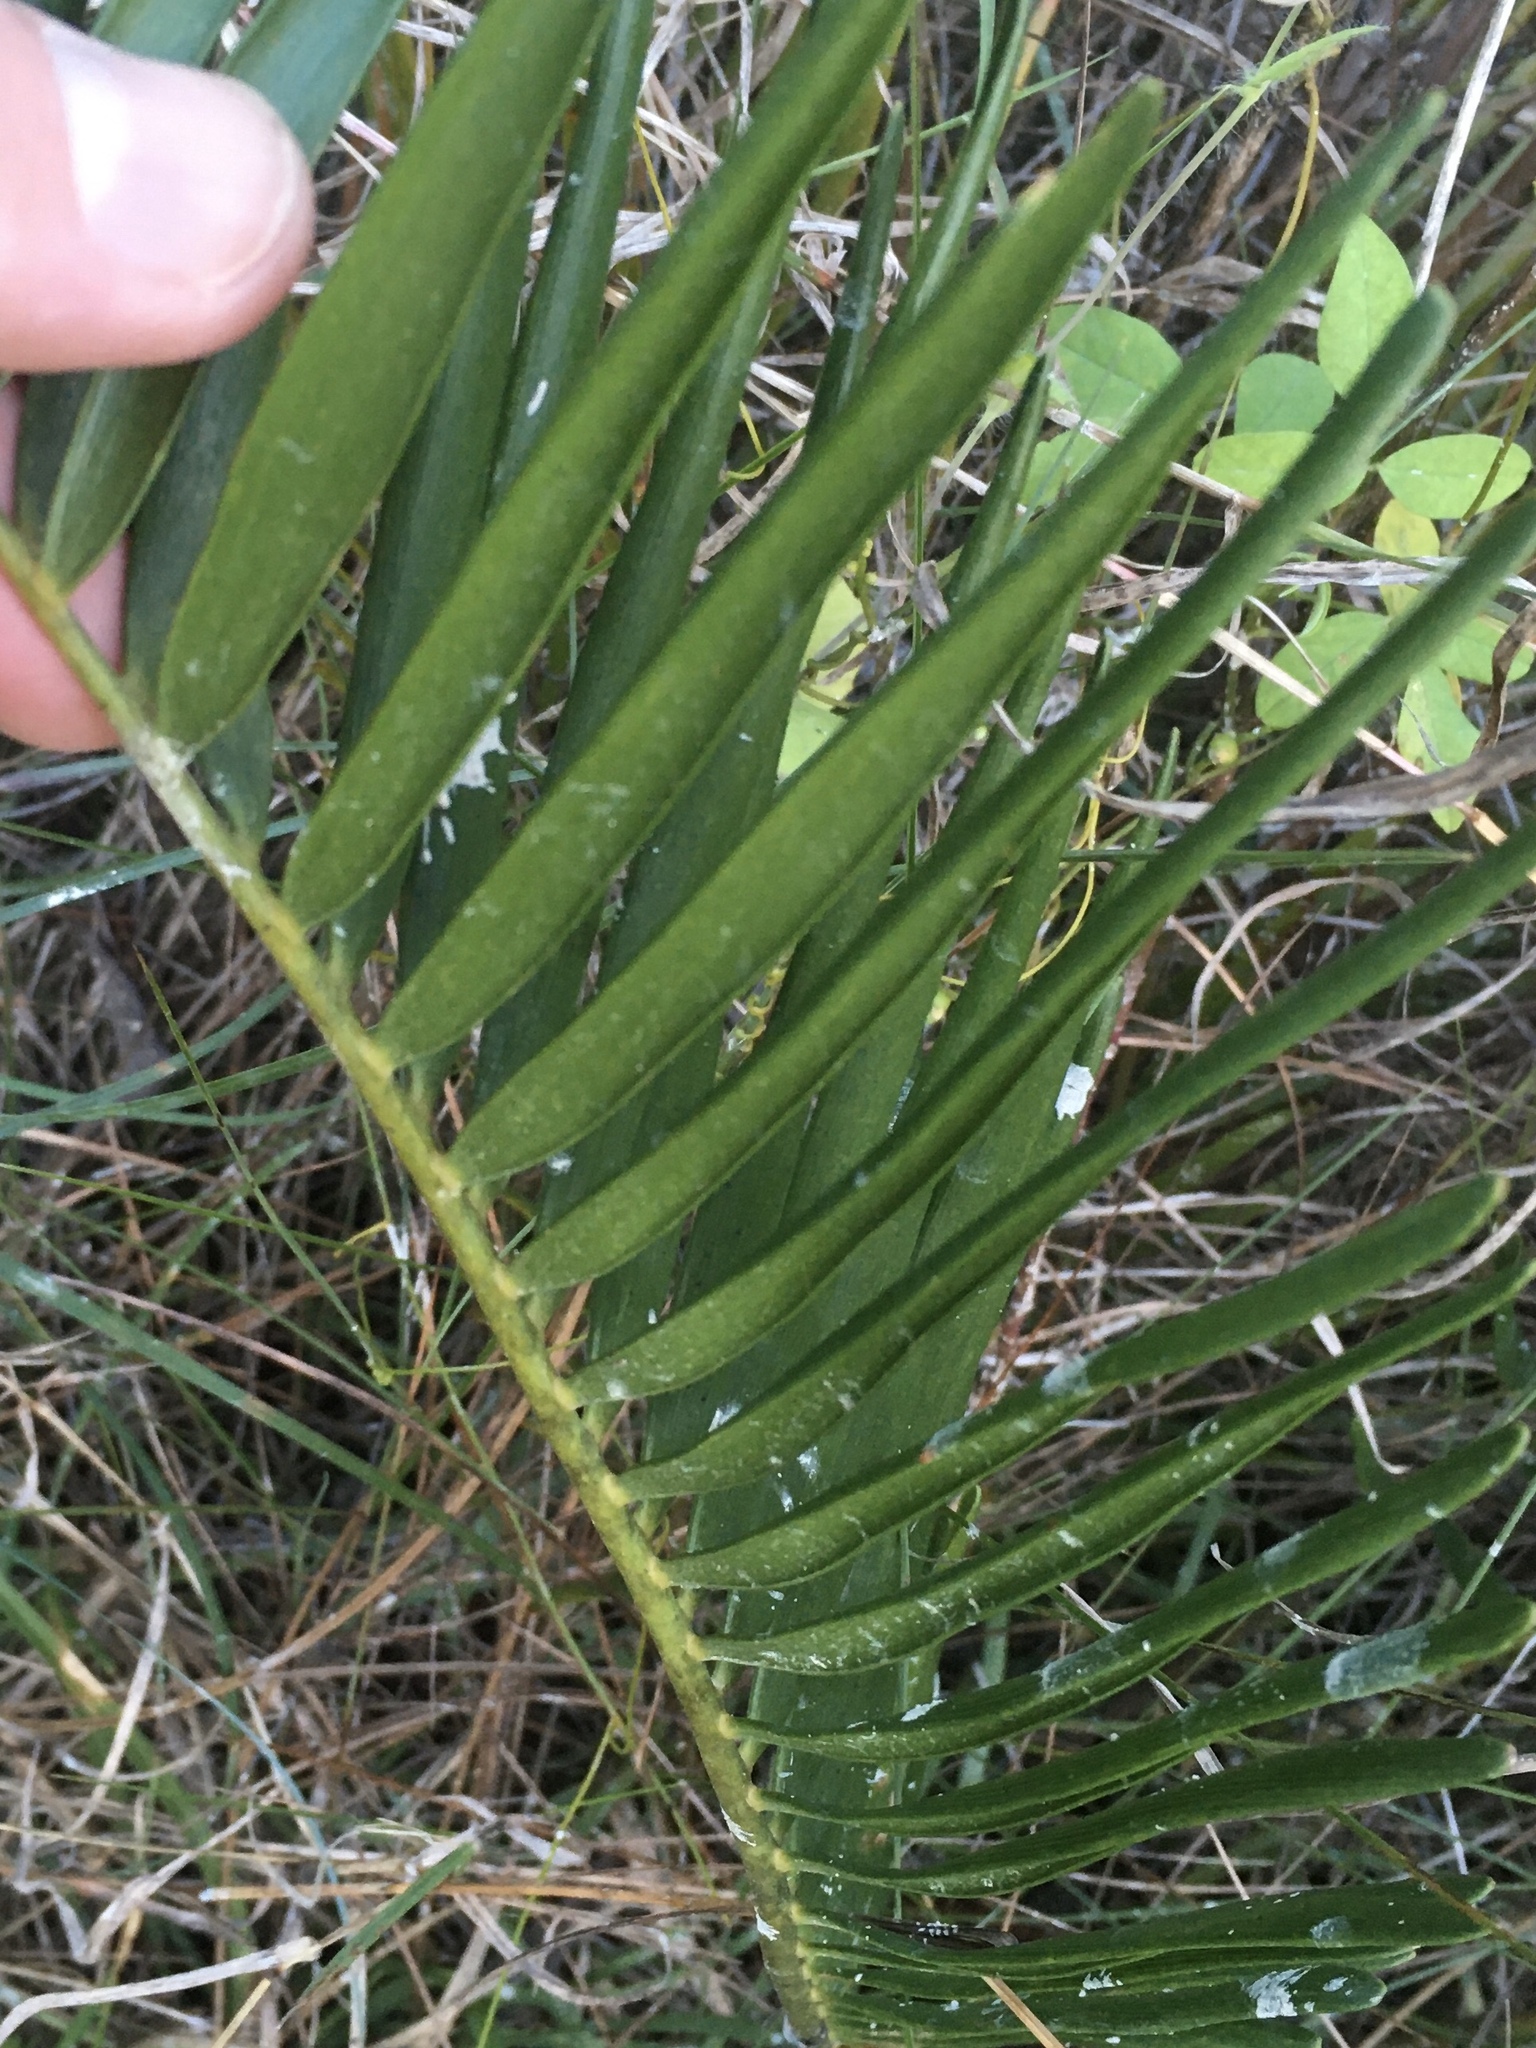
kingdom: Plantae
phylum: Tracheophyta
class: Cycadopsida
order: Cycadales
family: Zamiaceae
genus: Zamia
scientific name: Zamia integrifolia
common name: Florida arrowroot
